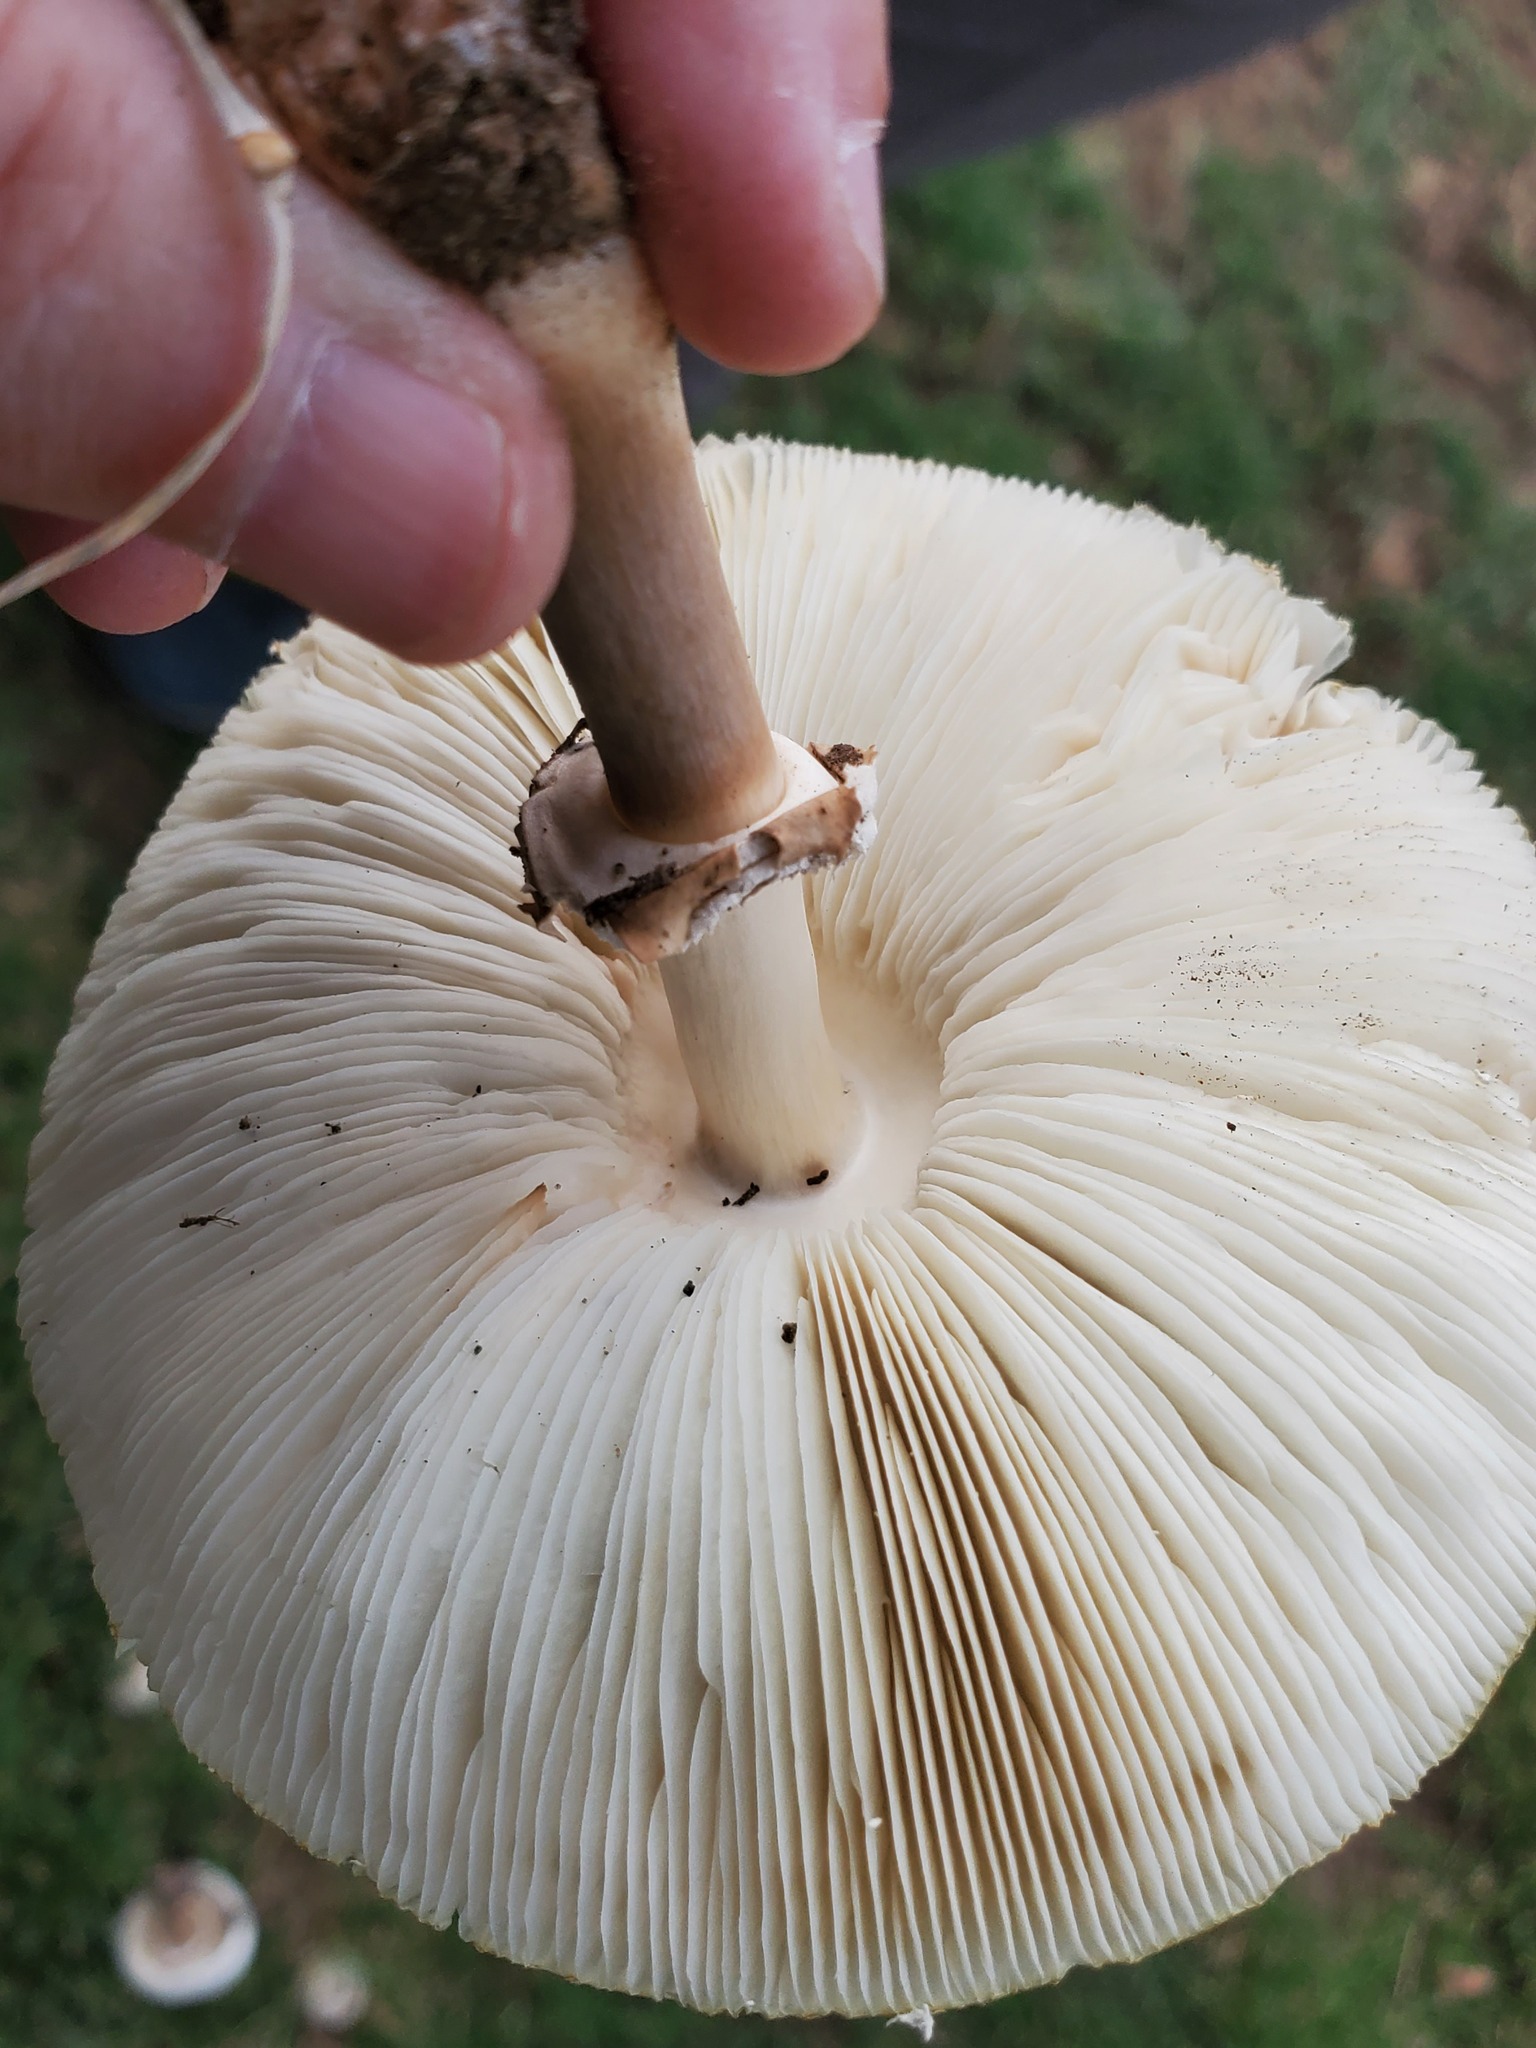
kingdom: Fungi
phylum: Basidiomycota
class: Agaricomycetes
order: Agaricales
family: Agaricaceae
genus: Chlorophyllum
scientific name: Chlorophyllum molybdites
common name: False parasol
